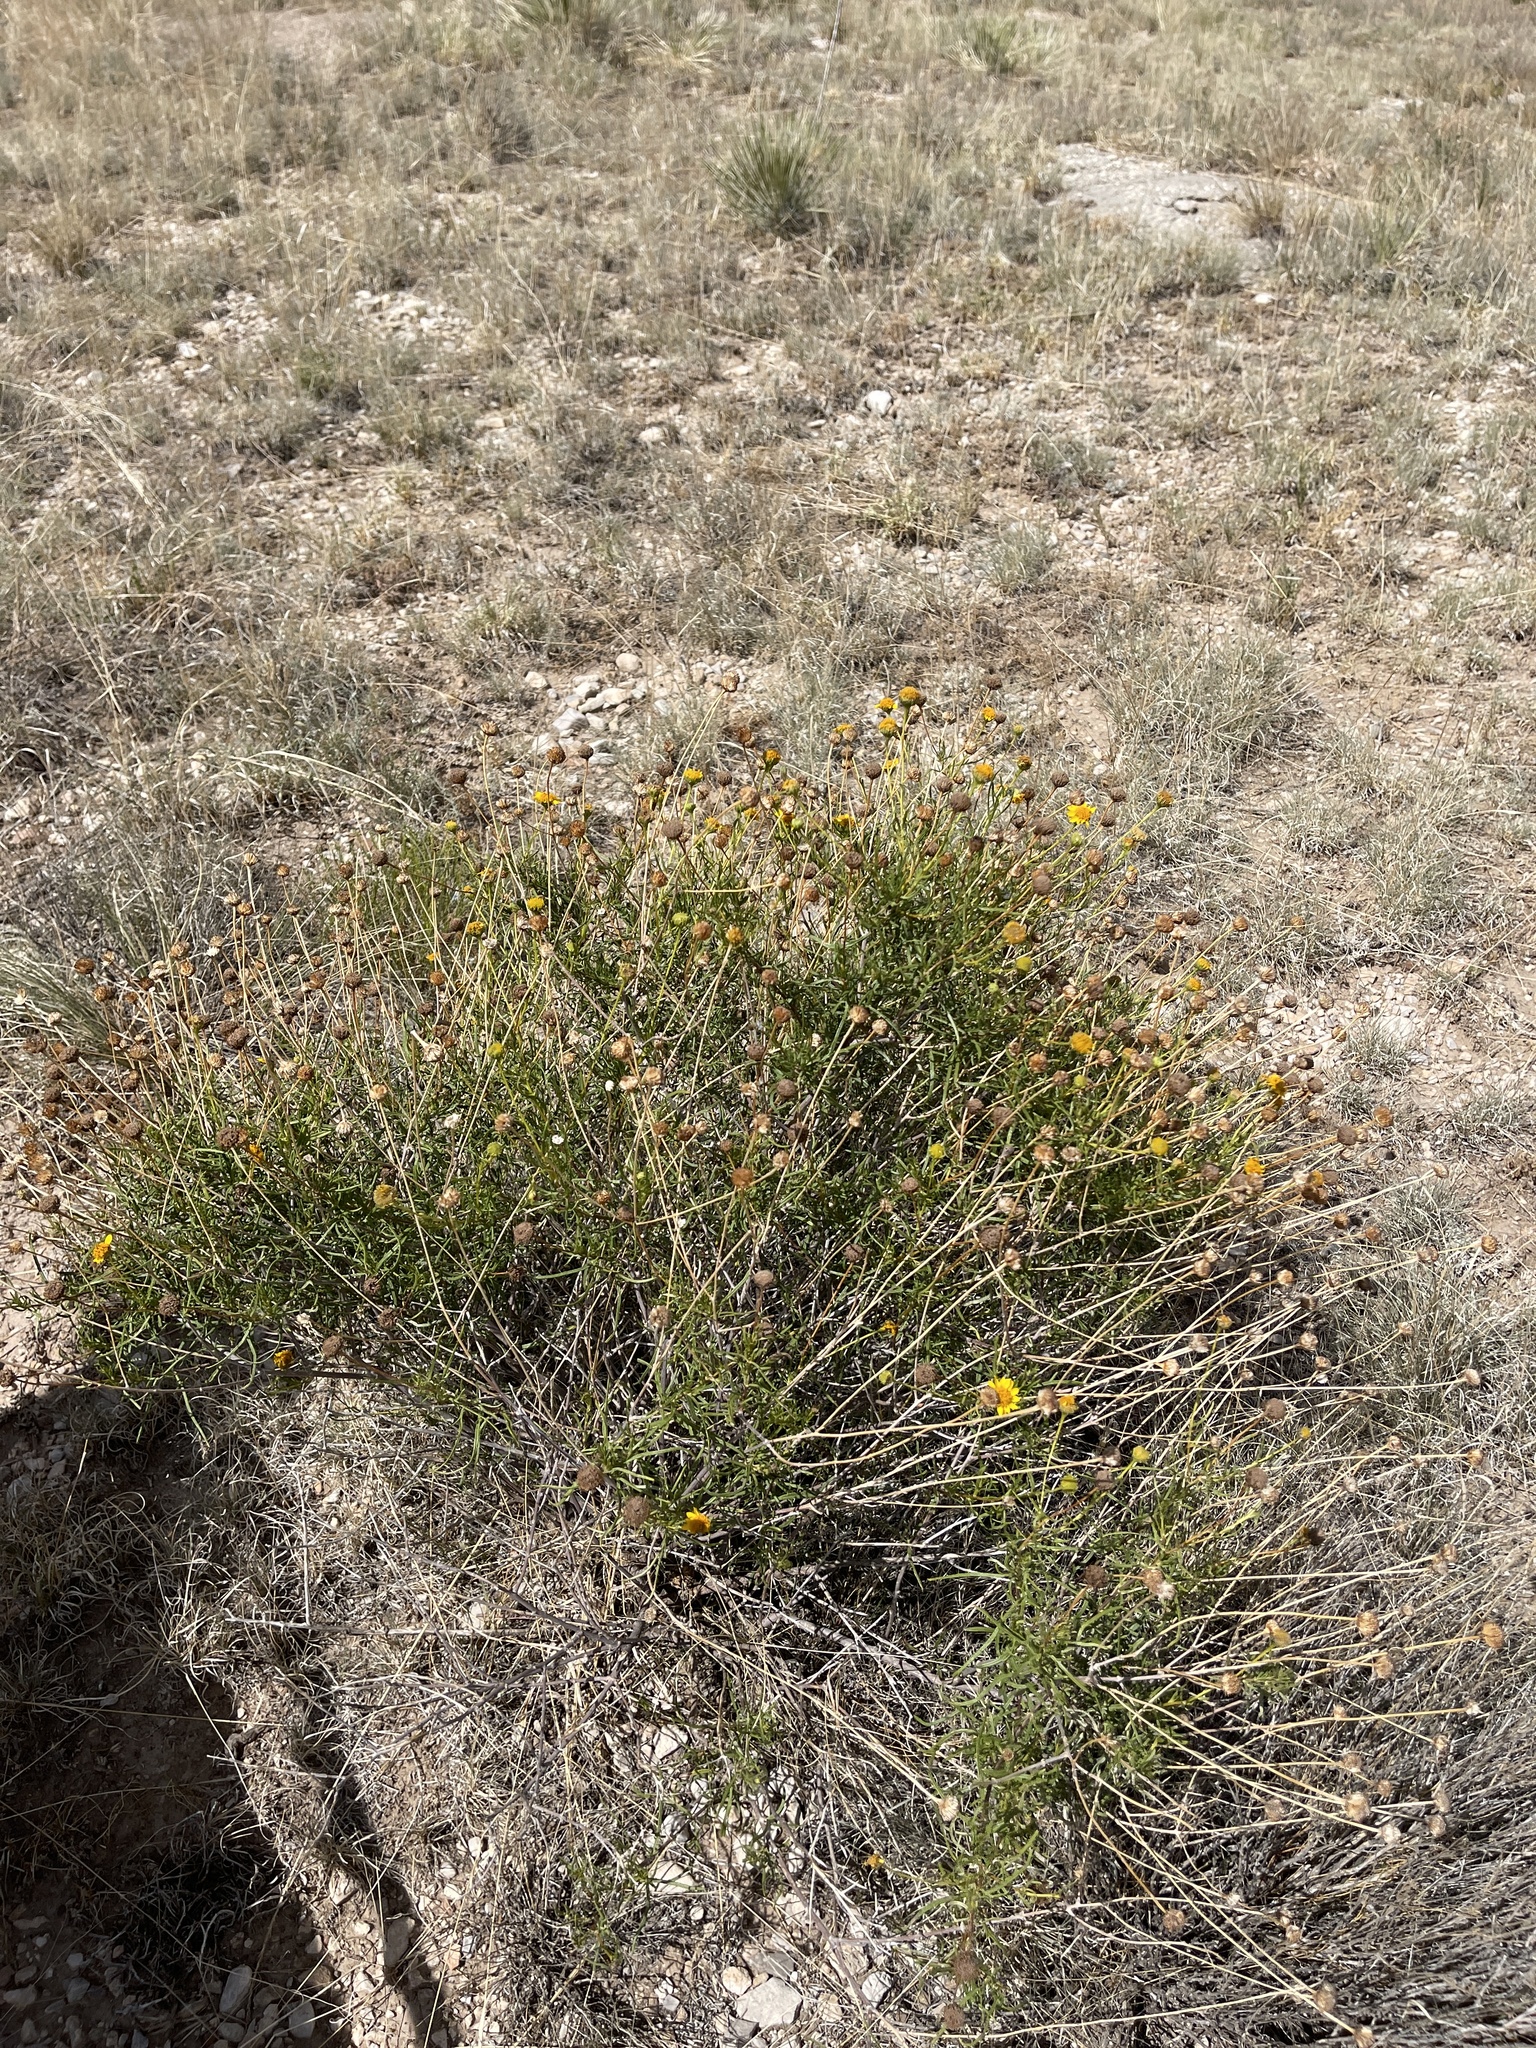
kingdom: Plantae
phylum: Tracheophyta
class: Magnoliopsida
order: Asterales
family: Asteraceae
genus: Sidneya
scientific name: Sidneya tenuifolia
